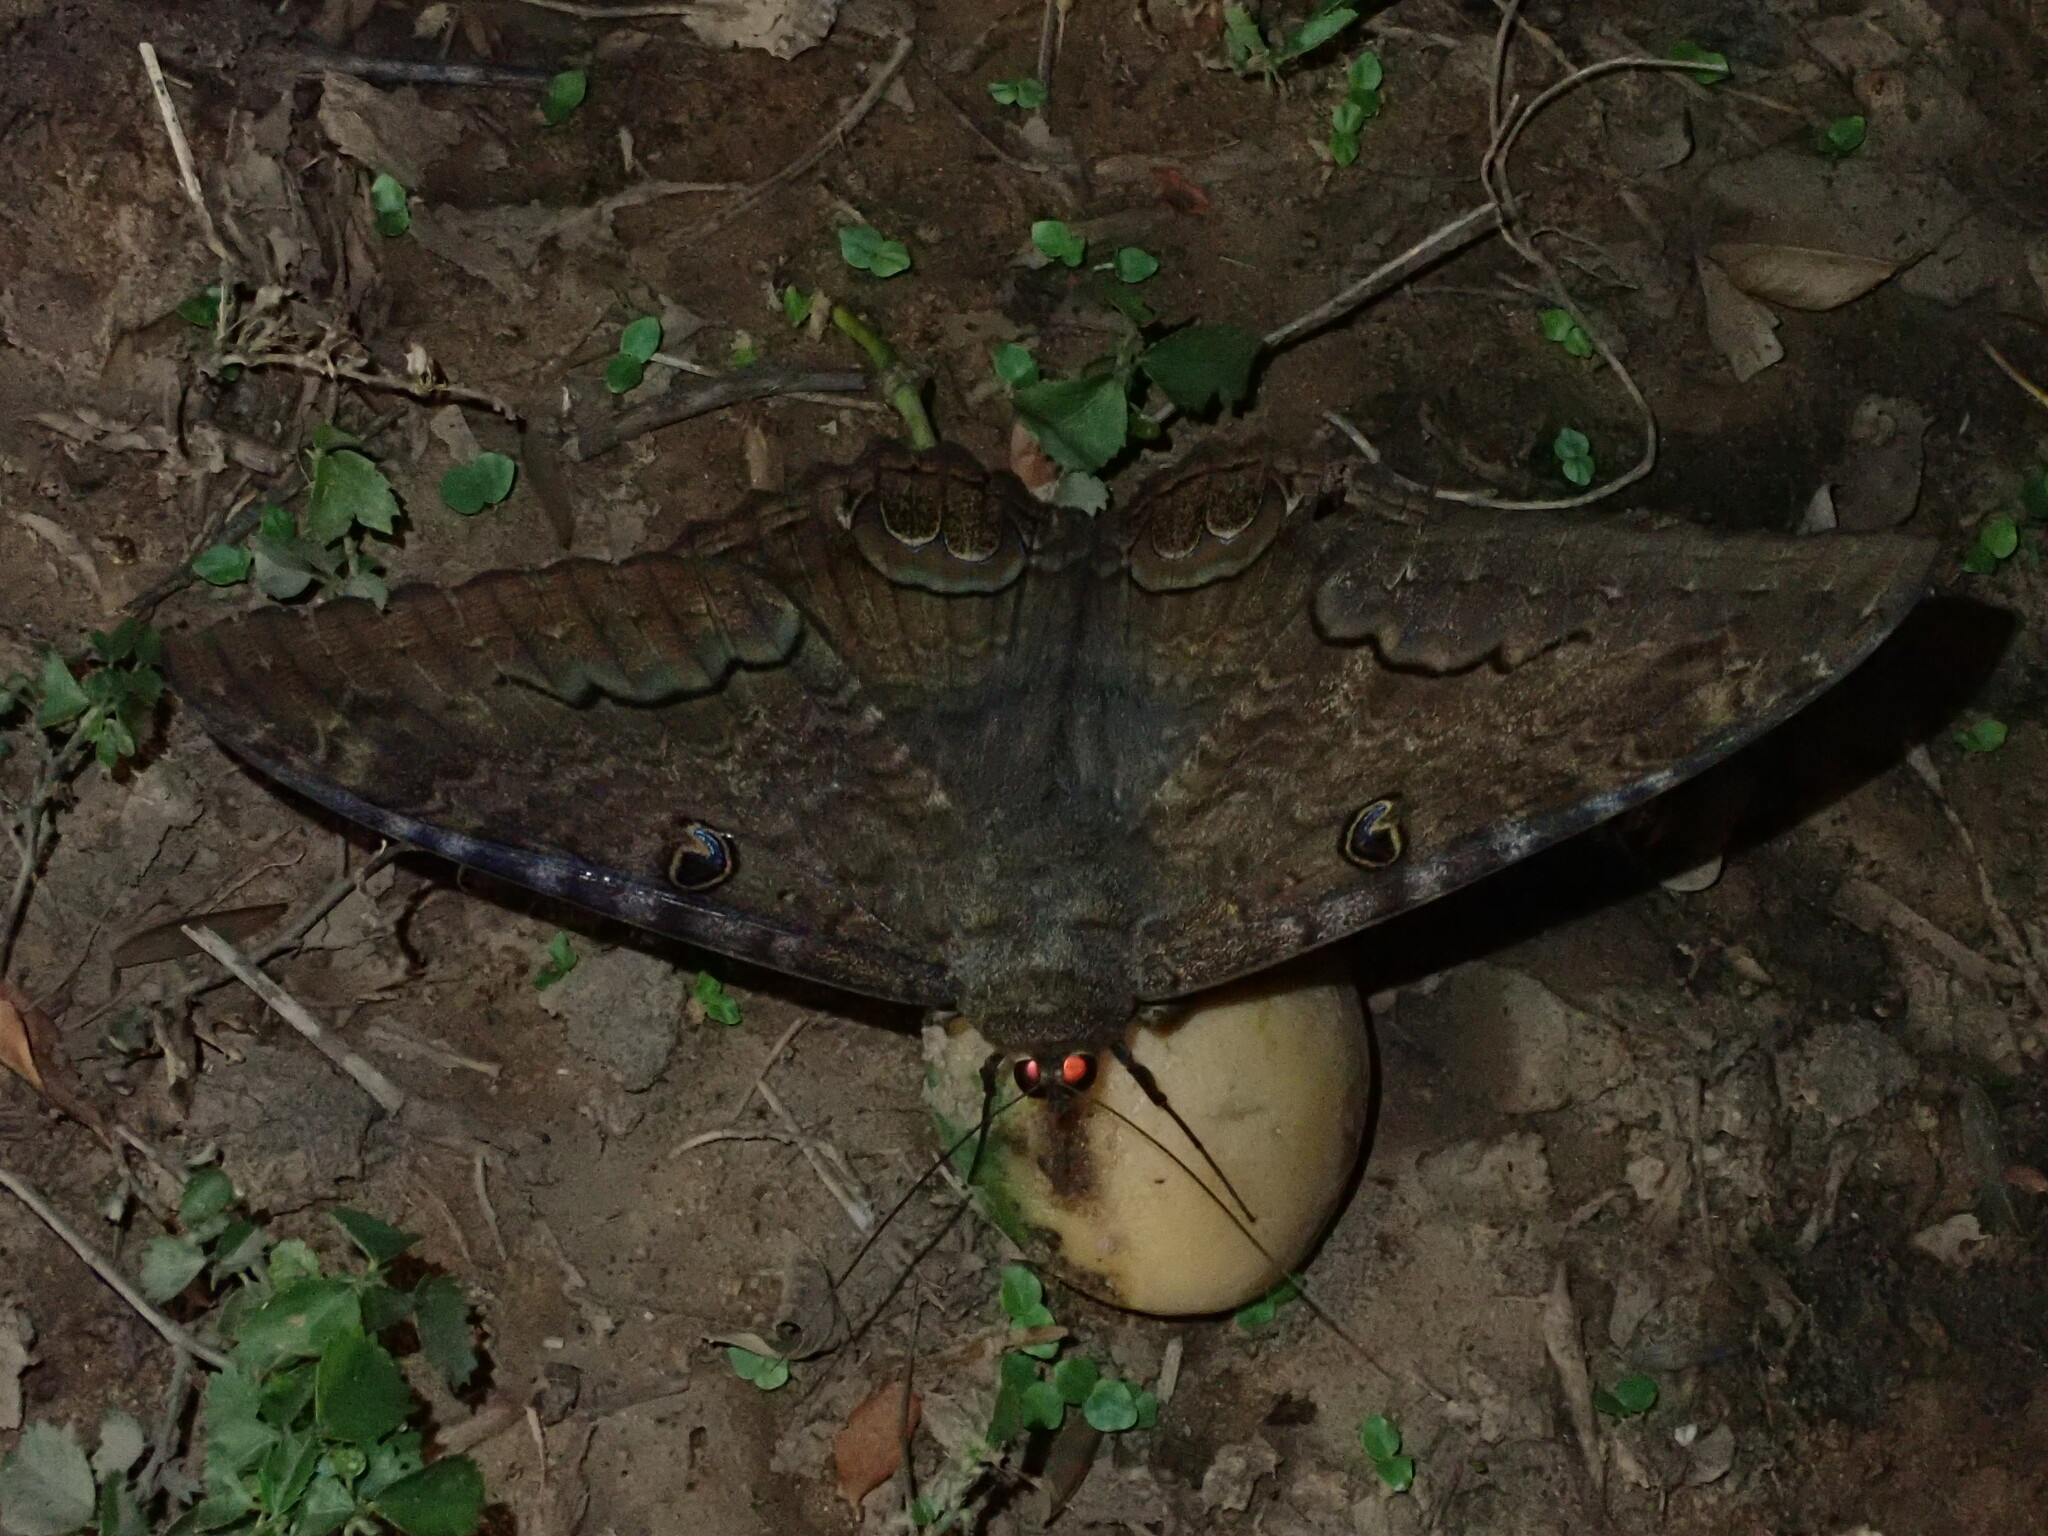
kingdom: Animalia
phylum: Arthropoda
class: Insecta
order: Lepidoptera
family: Erebidae
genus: Ascalapha
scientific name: Ascalapha odorata
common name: Black witch
